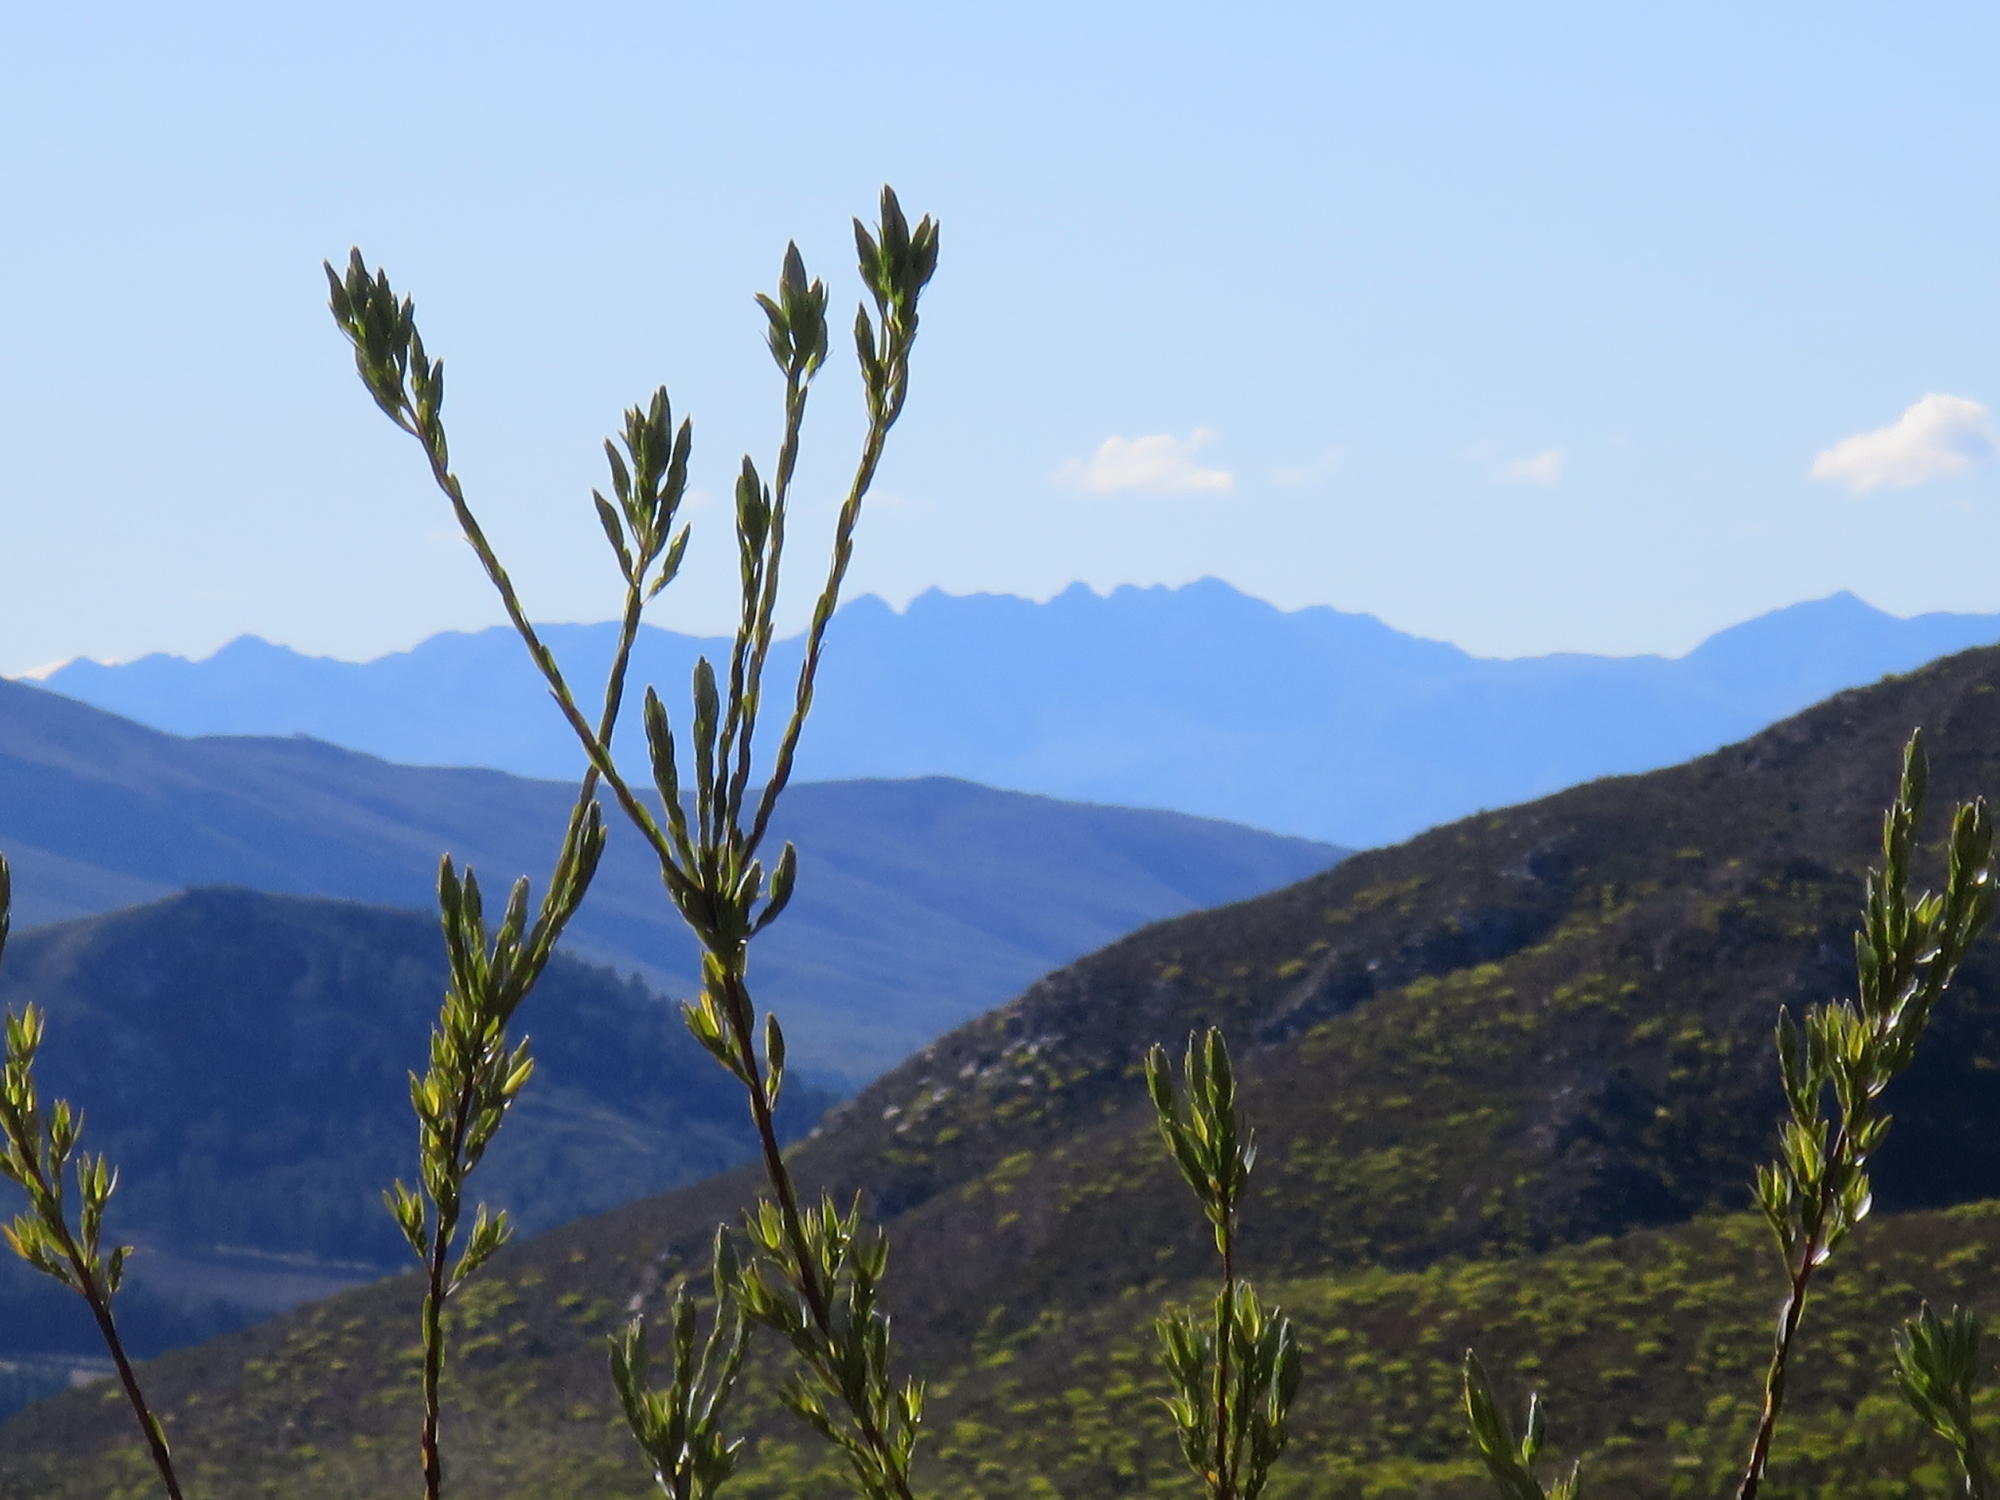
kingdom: Plantae
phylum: Tracheophyta
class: Magnoliopsida
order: Proteales
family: Proteaceae
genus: Leucadendron
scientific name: Leucadendron uliginosum
